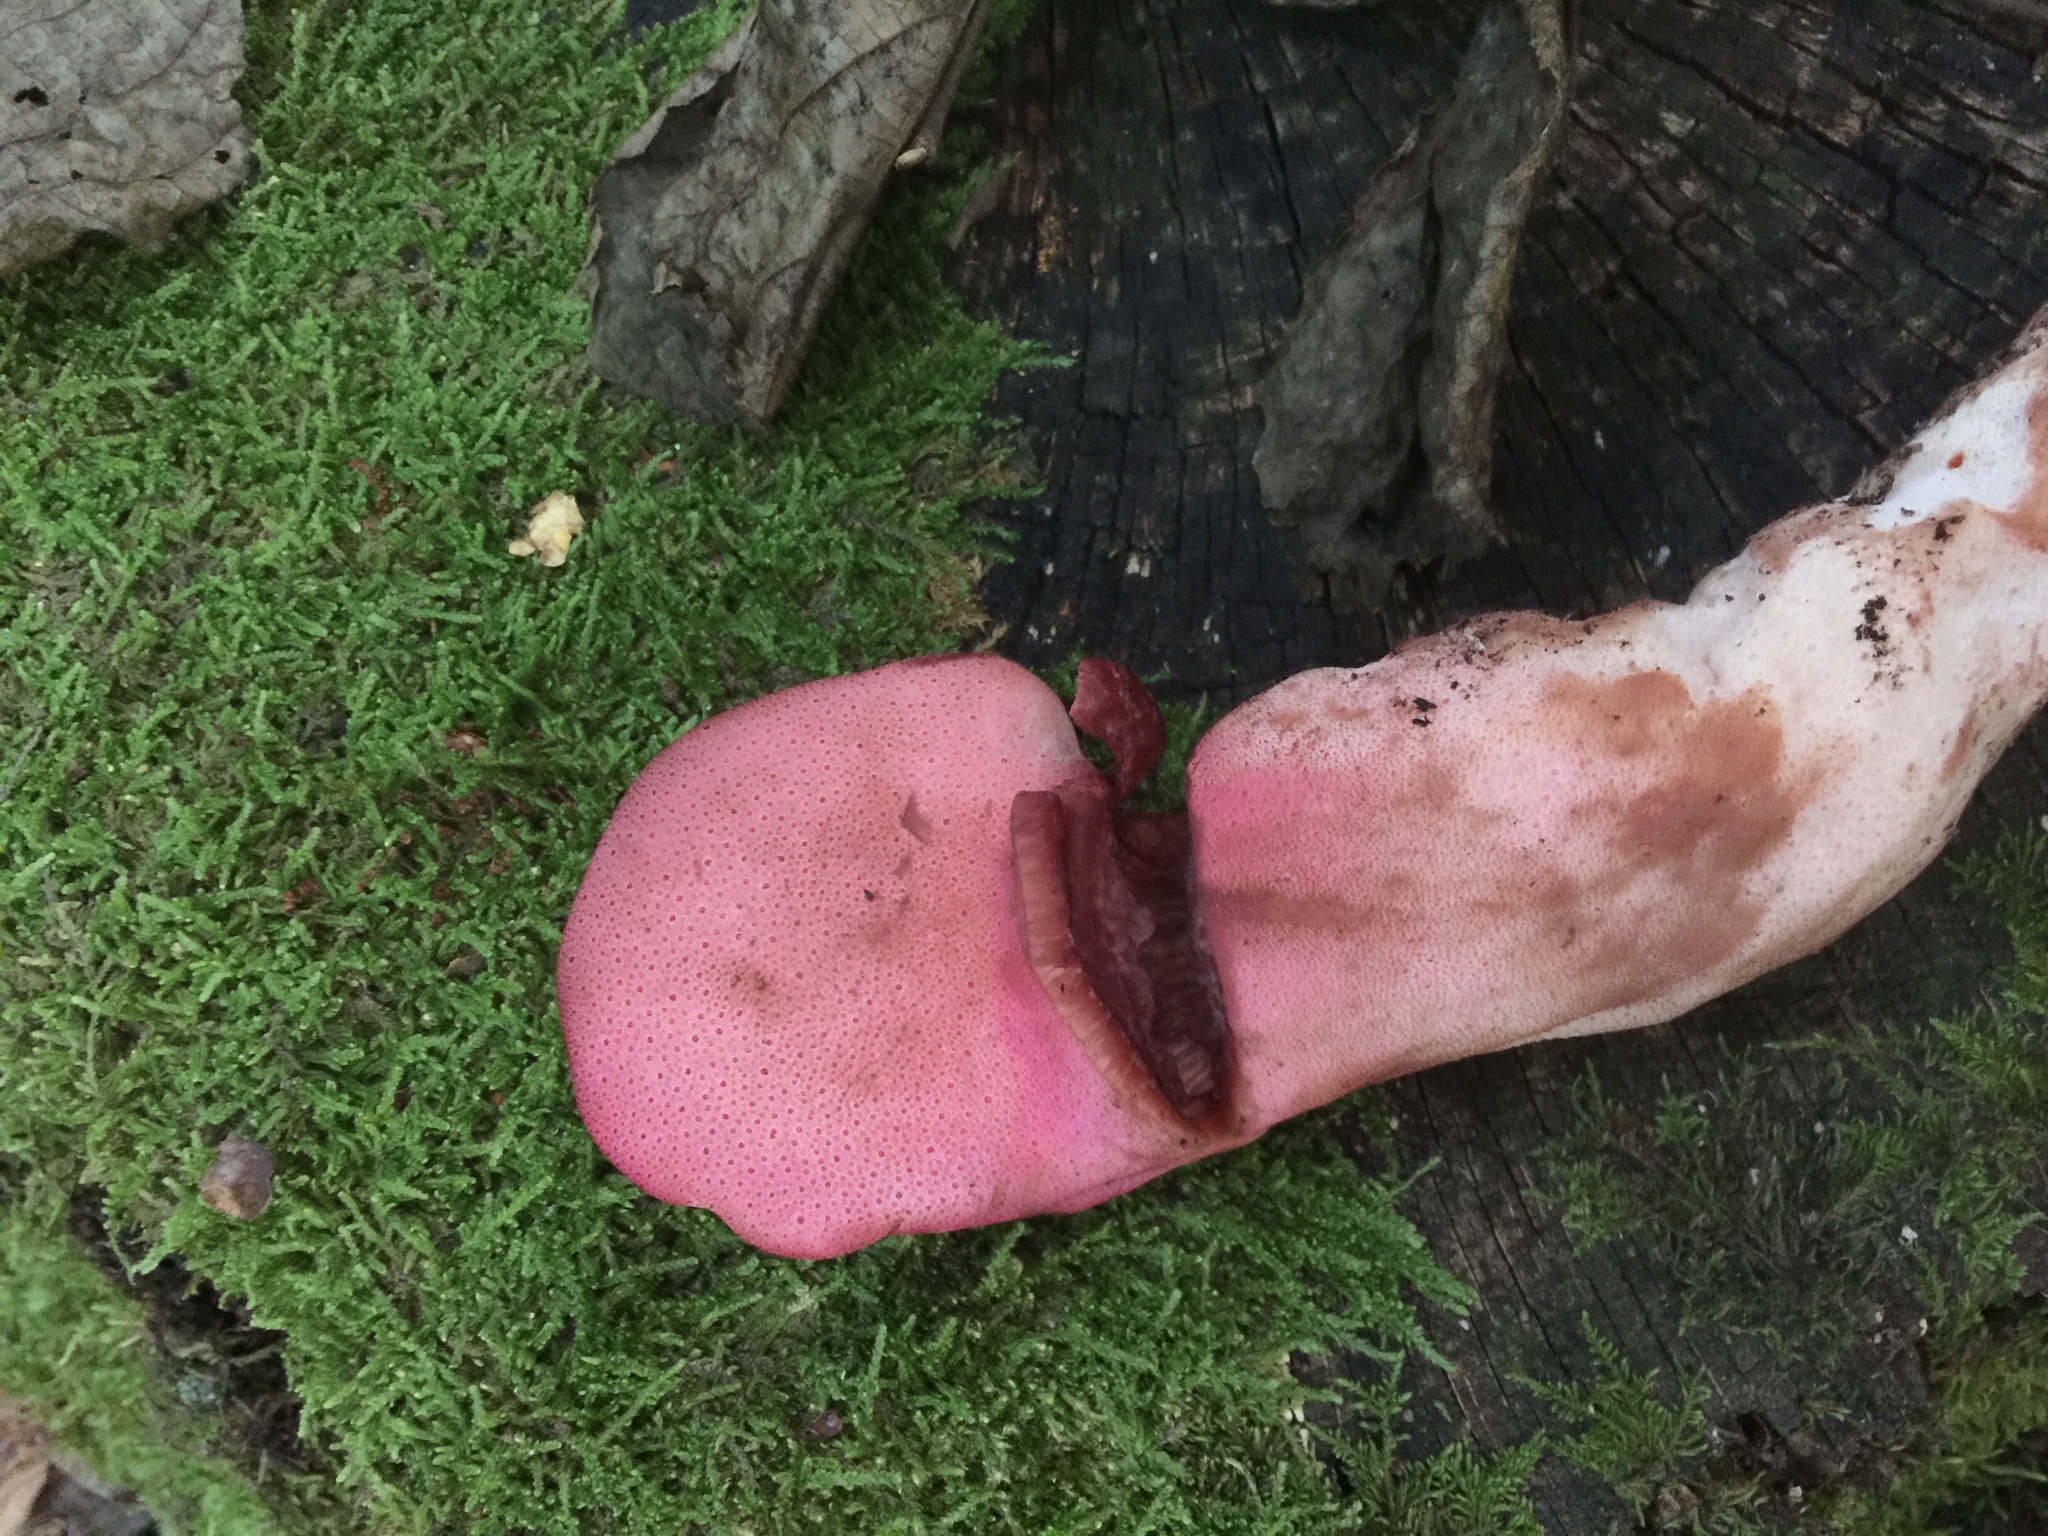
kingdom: Fungi
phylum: Basidiomycota
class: Agaricomycetes
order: Agaricales
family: Fistulinaceae
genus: Fistulina
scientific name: Fistulina hepatica
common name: Beef-steak fungus
